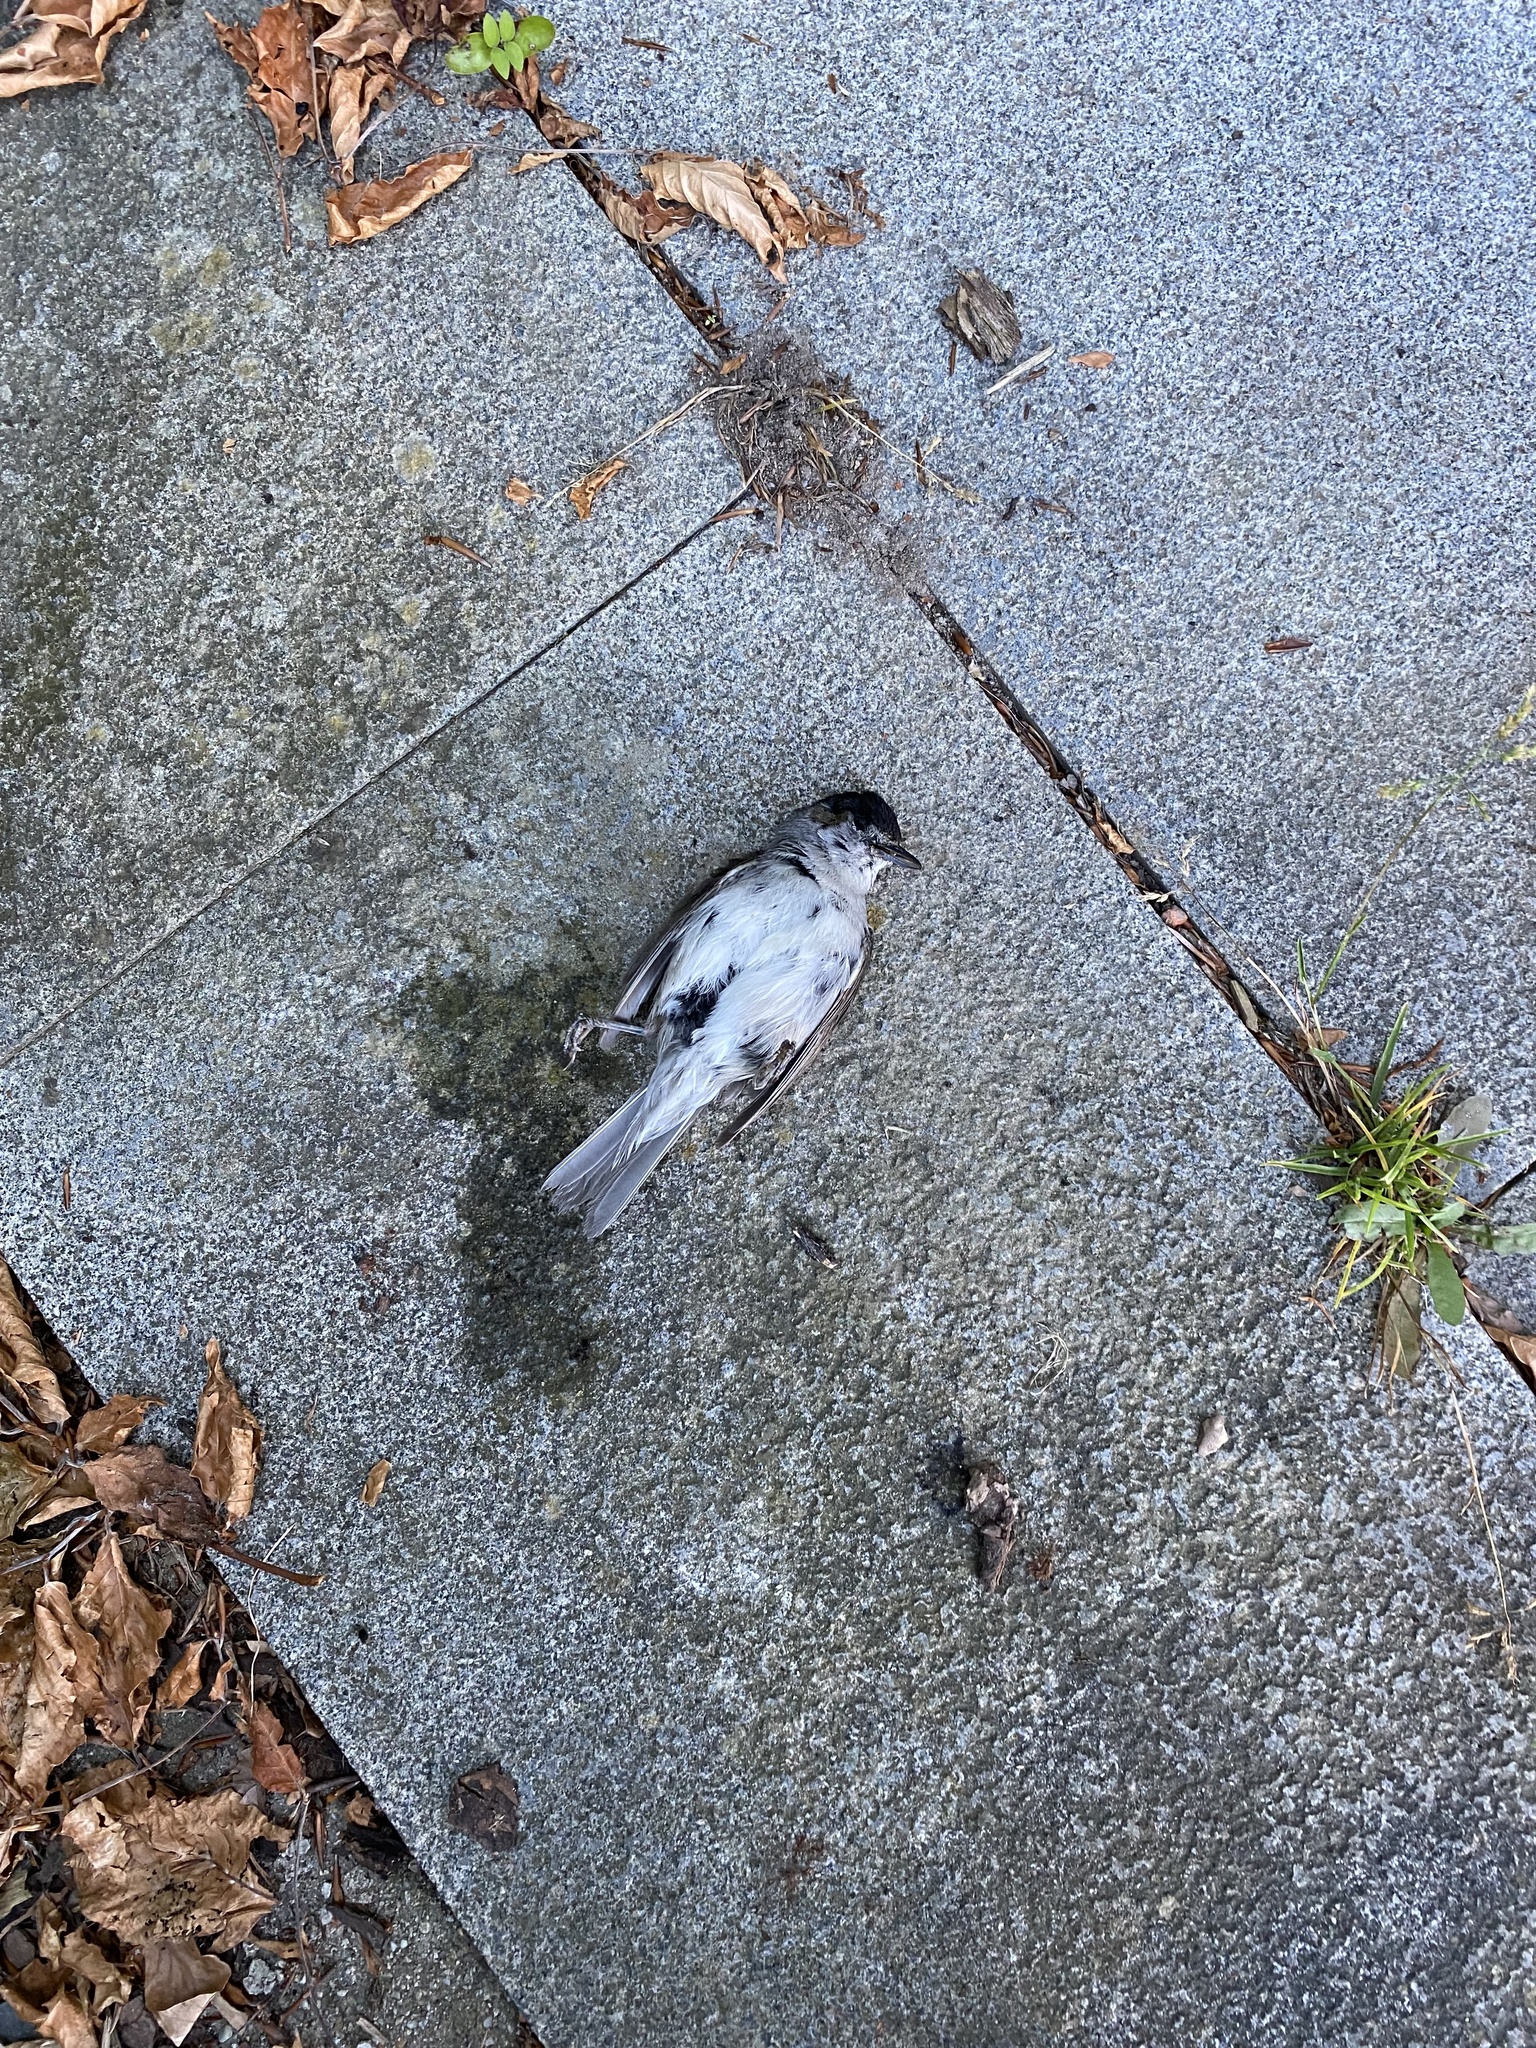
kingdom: Animalia
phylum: Chordata
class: Aves
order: Passeriformes
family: Sylviidae
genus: Sylvia
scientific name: Sylvia atricapilla
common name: Eurasian blackcap
